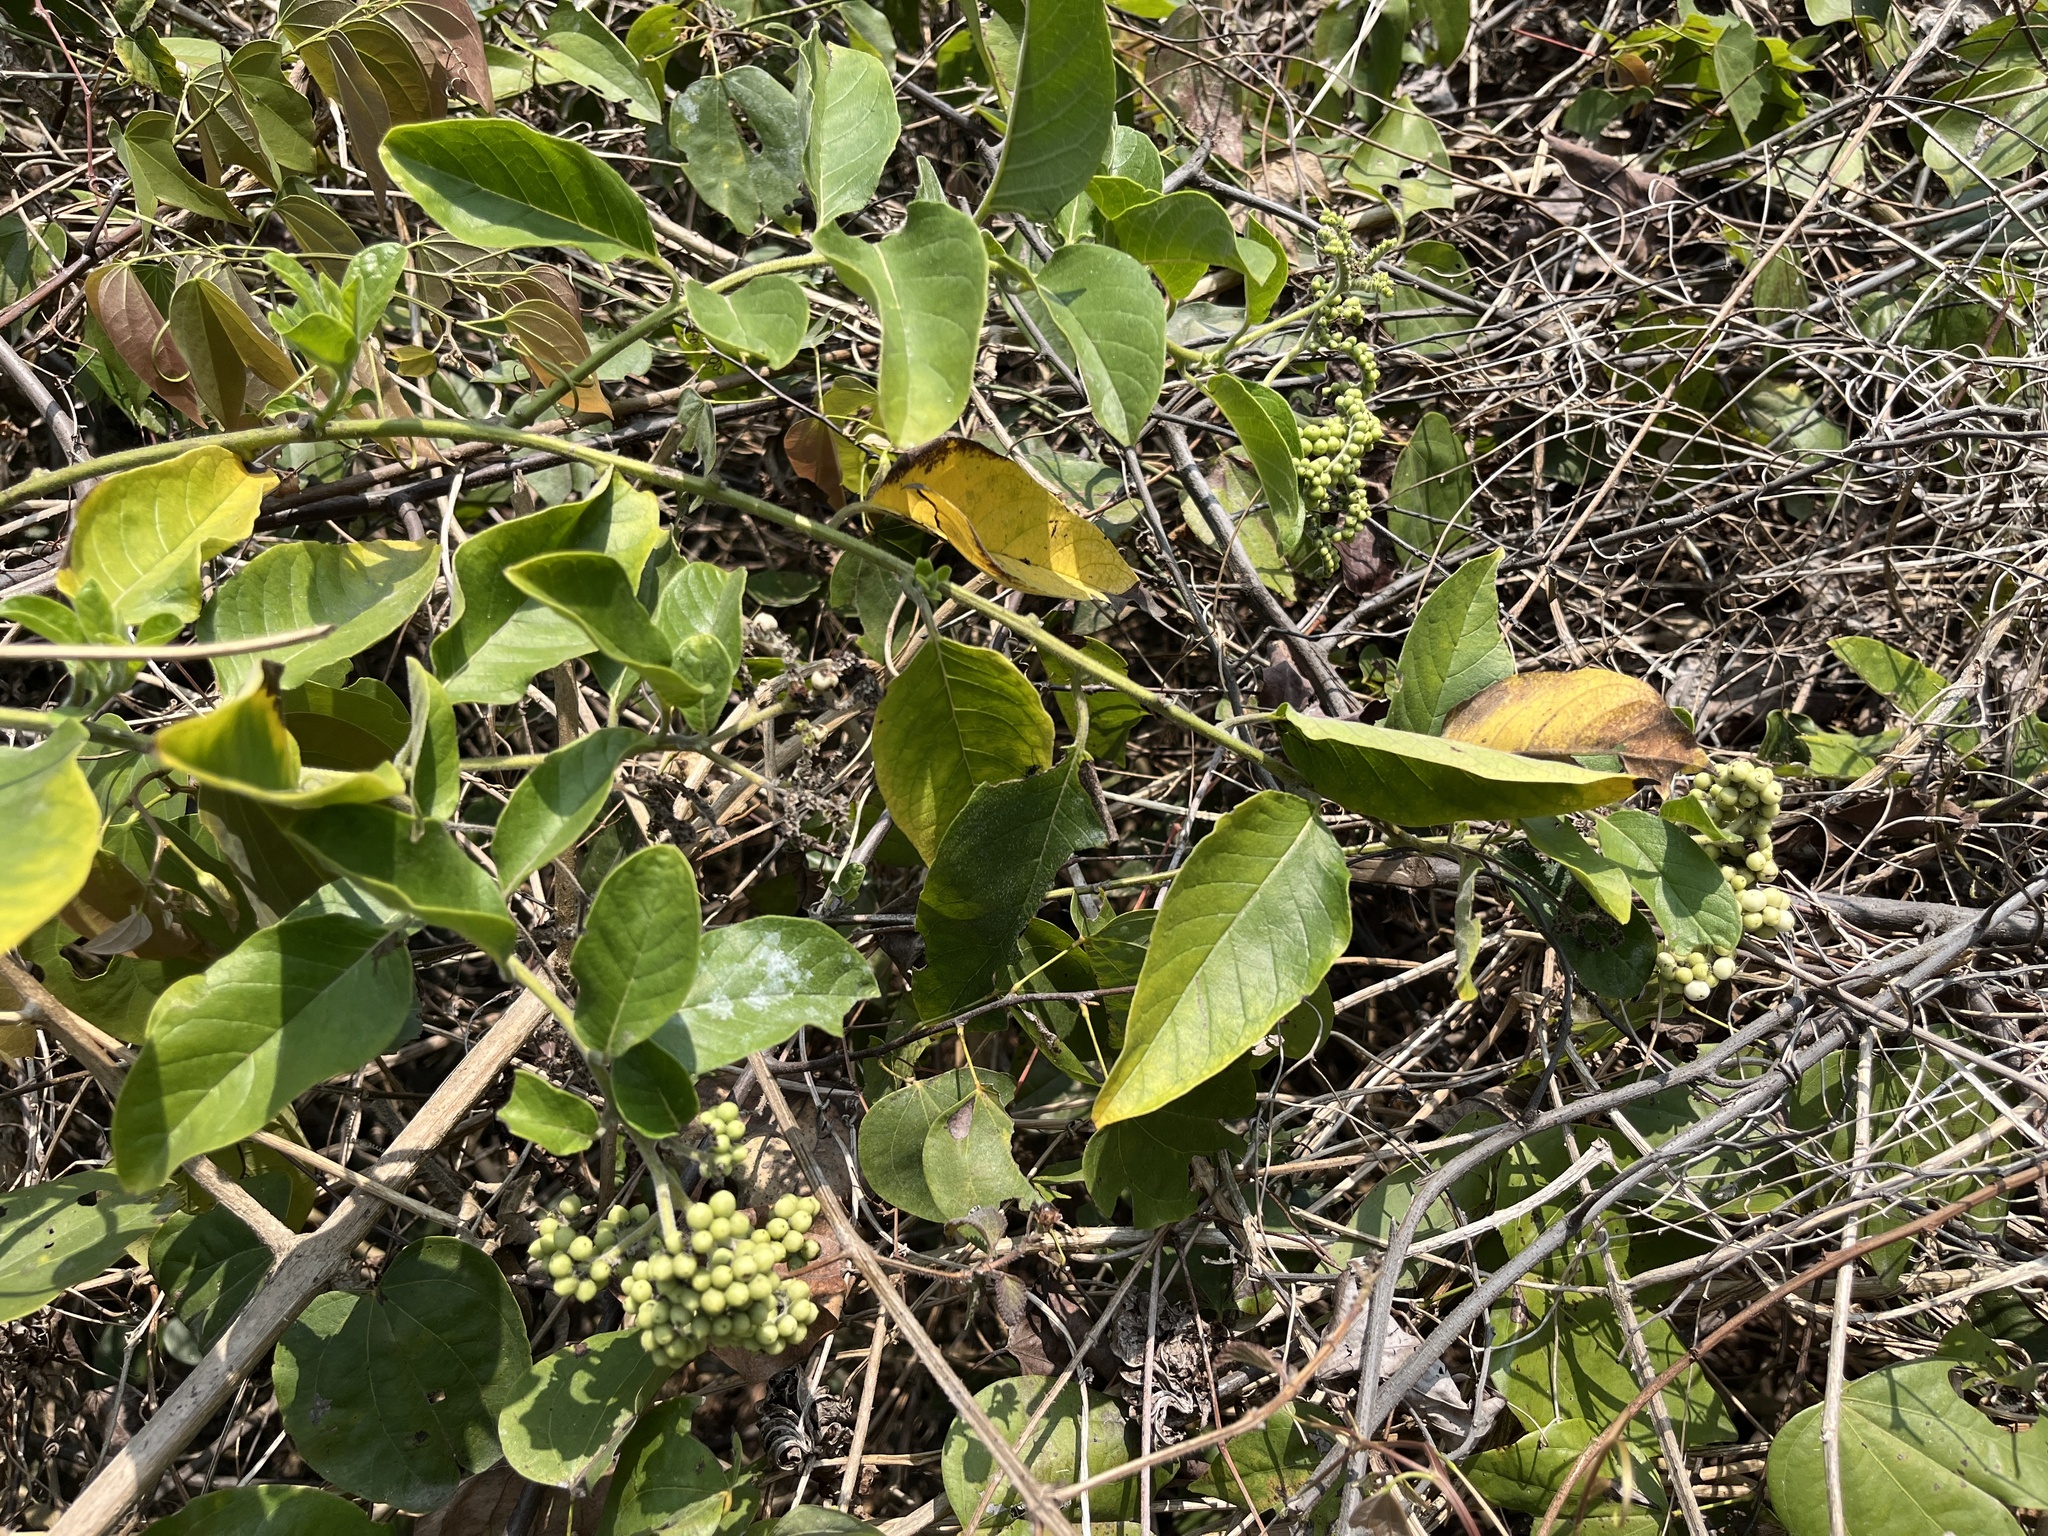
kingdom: Plantae
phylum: Tracheophyta
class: Magnoliopsida
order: Boraginales
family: Heliotropiaceae
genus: Heliotropium
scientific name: Heliotropium sarmentosum
